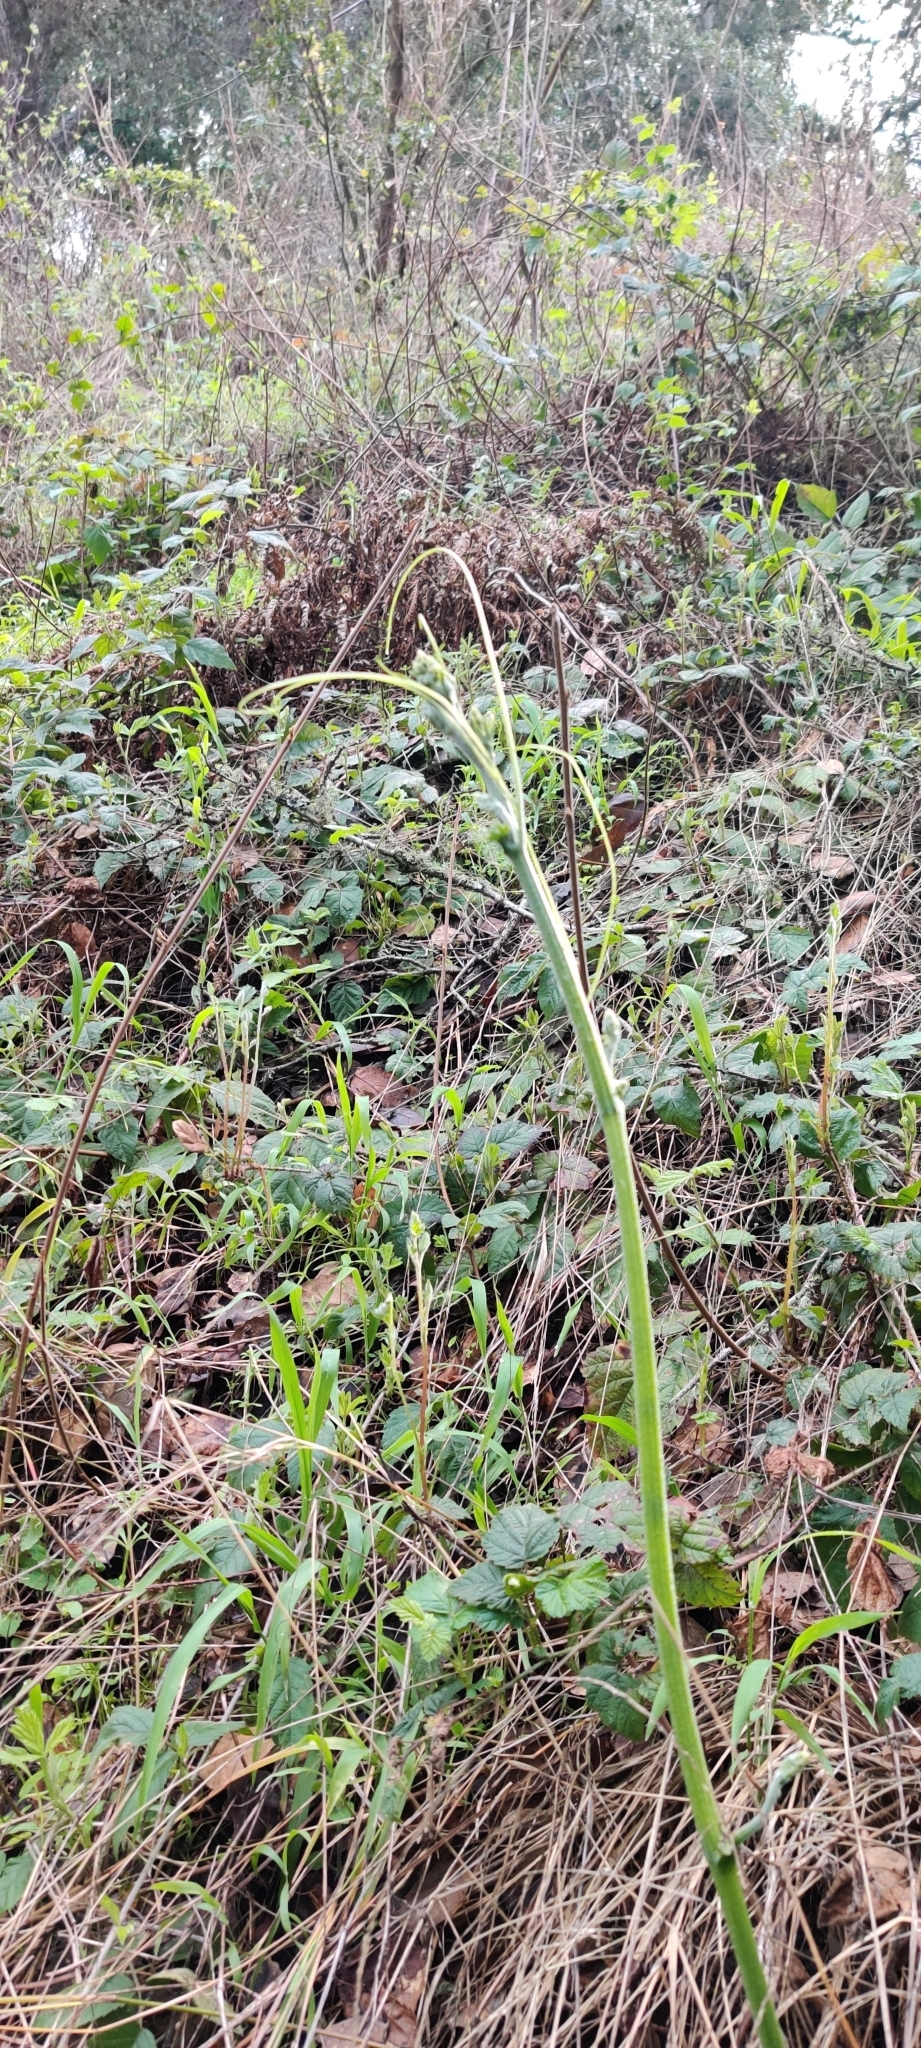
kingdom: Plantae
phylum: Tracheophyta
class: Magnoliopsida
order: Cucurbitales
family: Cucurbitaceae
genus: Marah
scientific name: Marah fabacea
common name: California manroot
